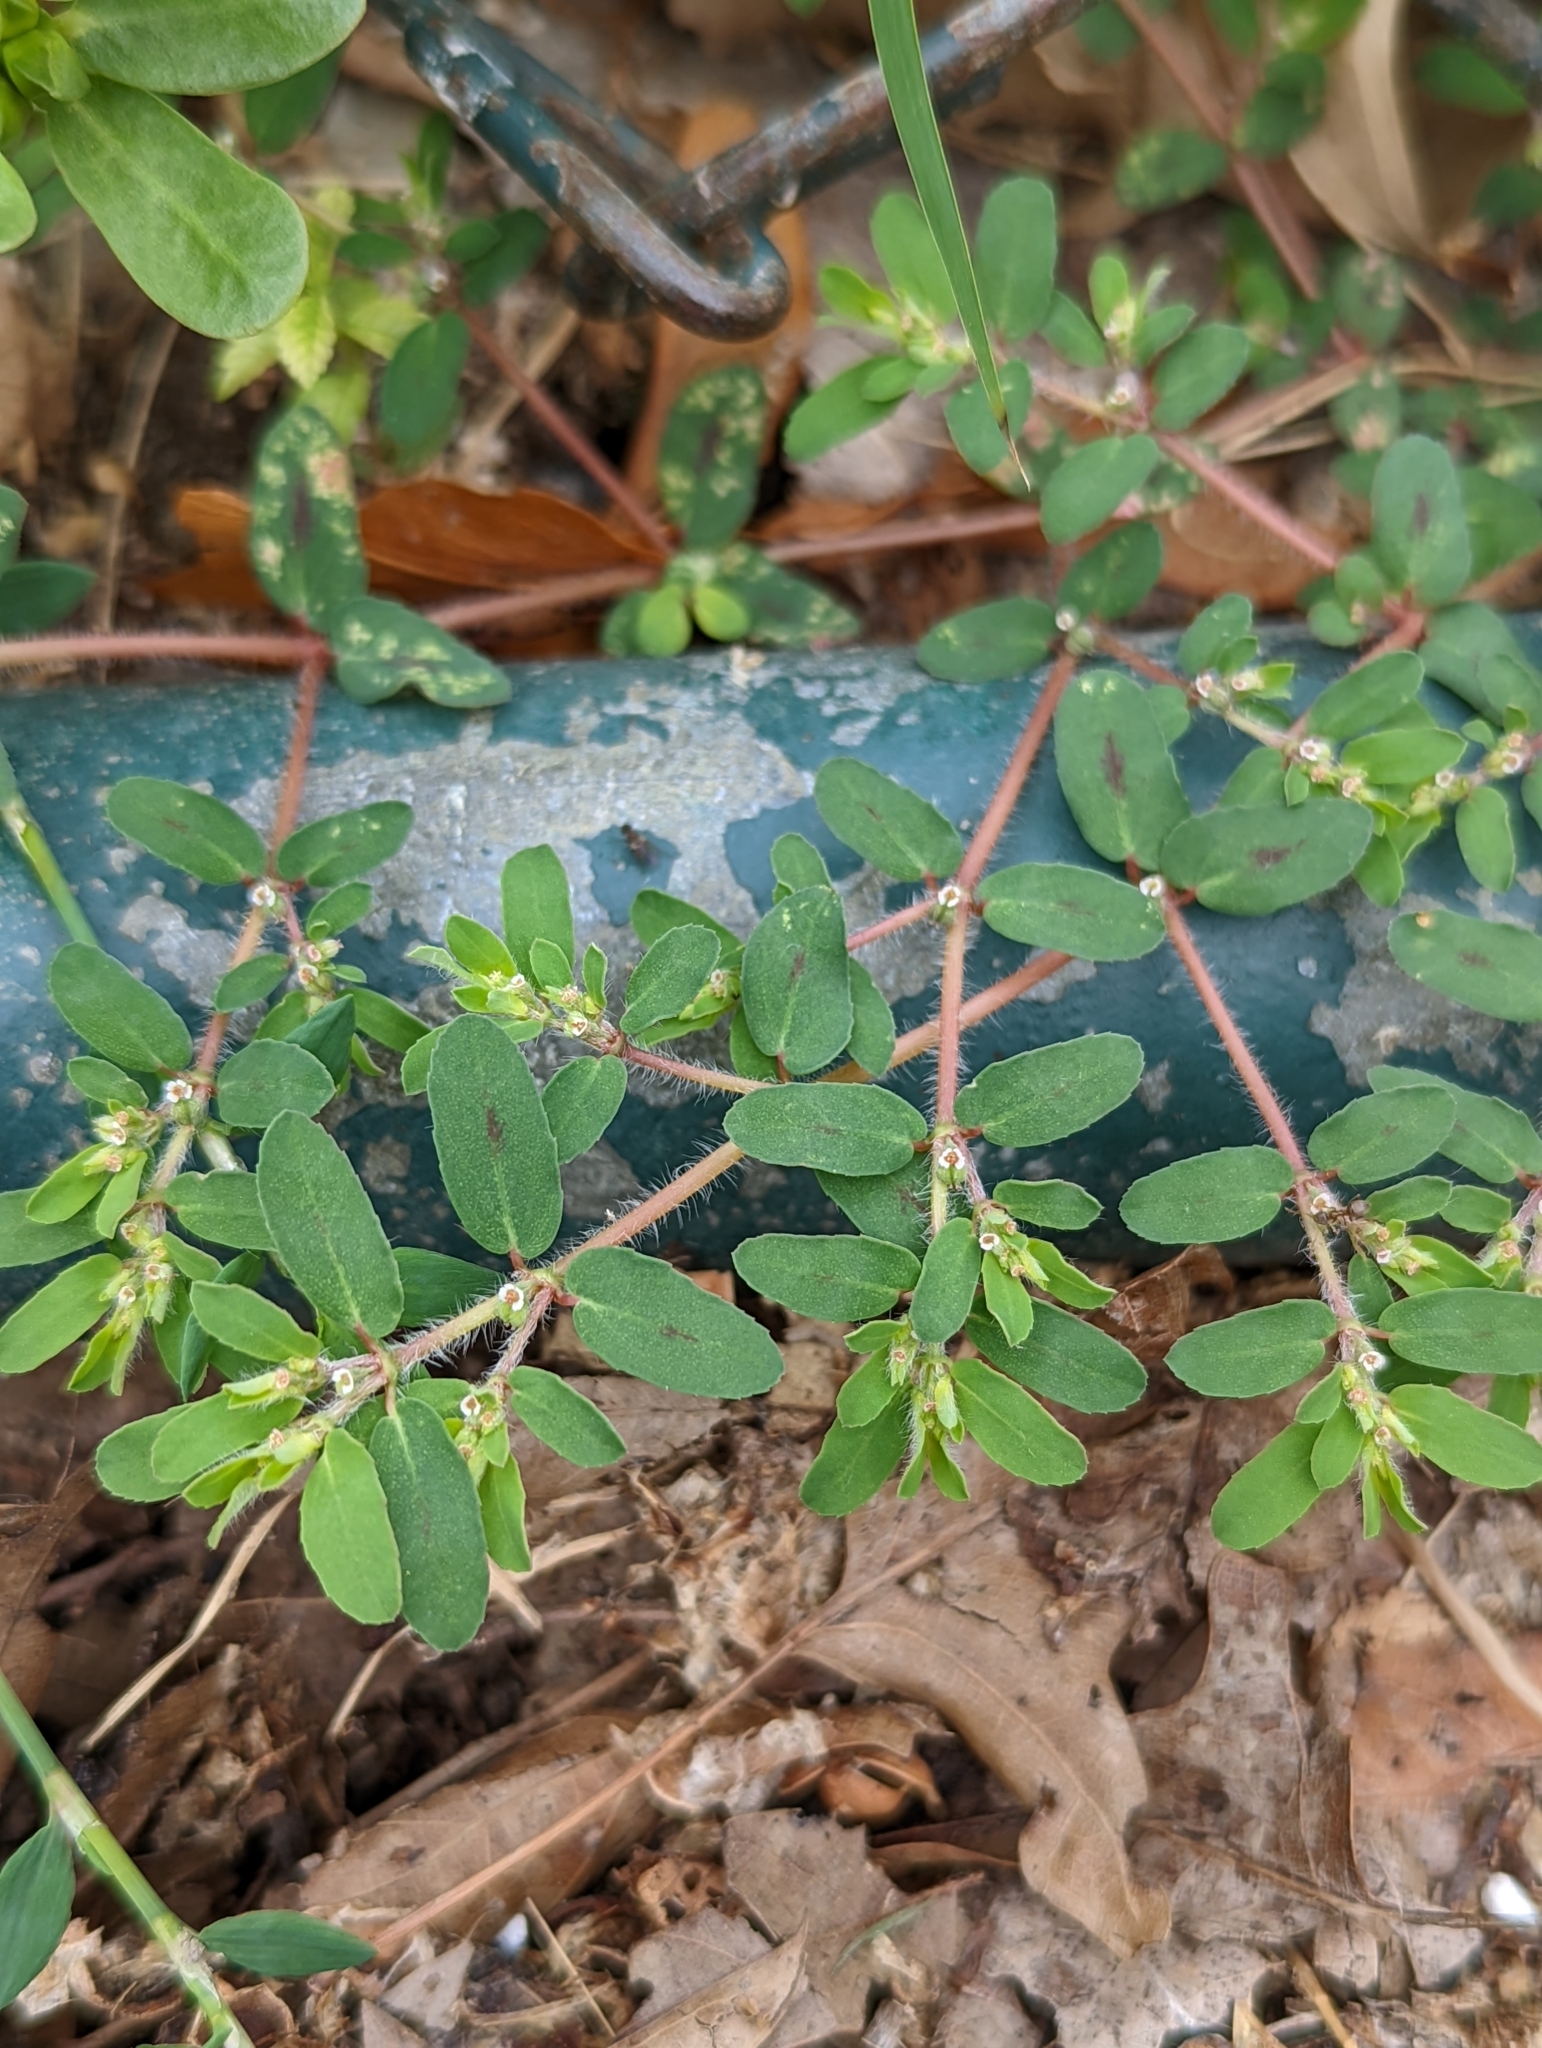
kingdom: Plantae
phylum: Tracheophyta
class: Magnoliopsida
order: Malpighiales
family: Euphorbiaceae
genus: Euphorbia
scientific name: Euphorbia maculata
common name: Spotted spurge
